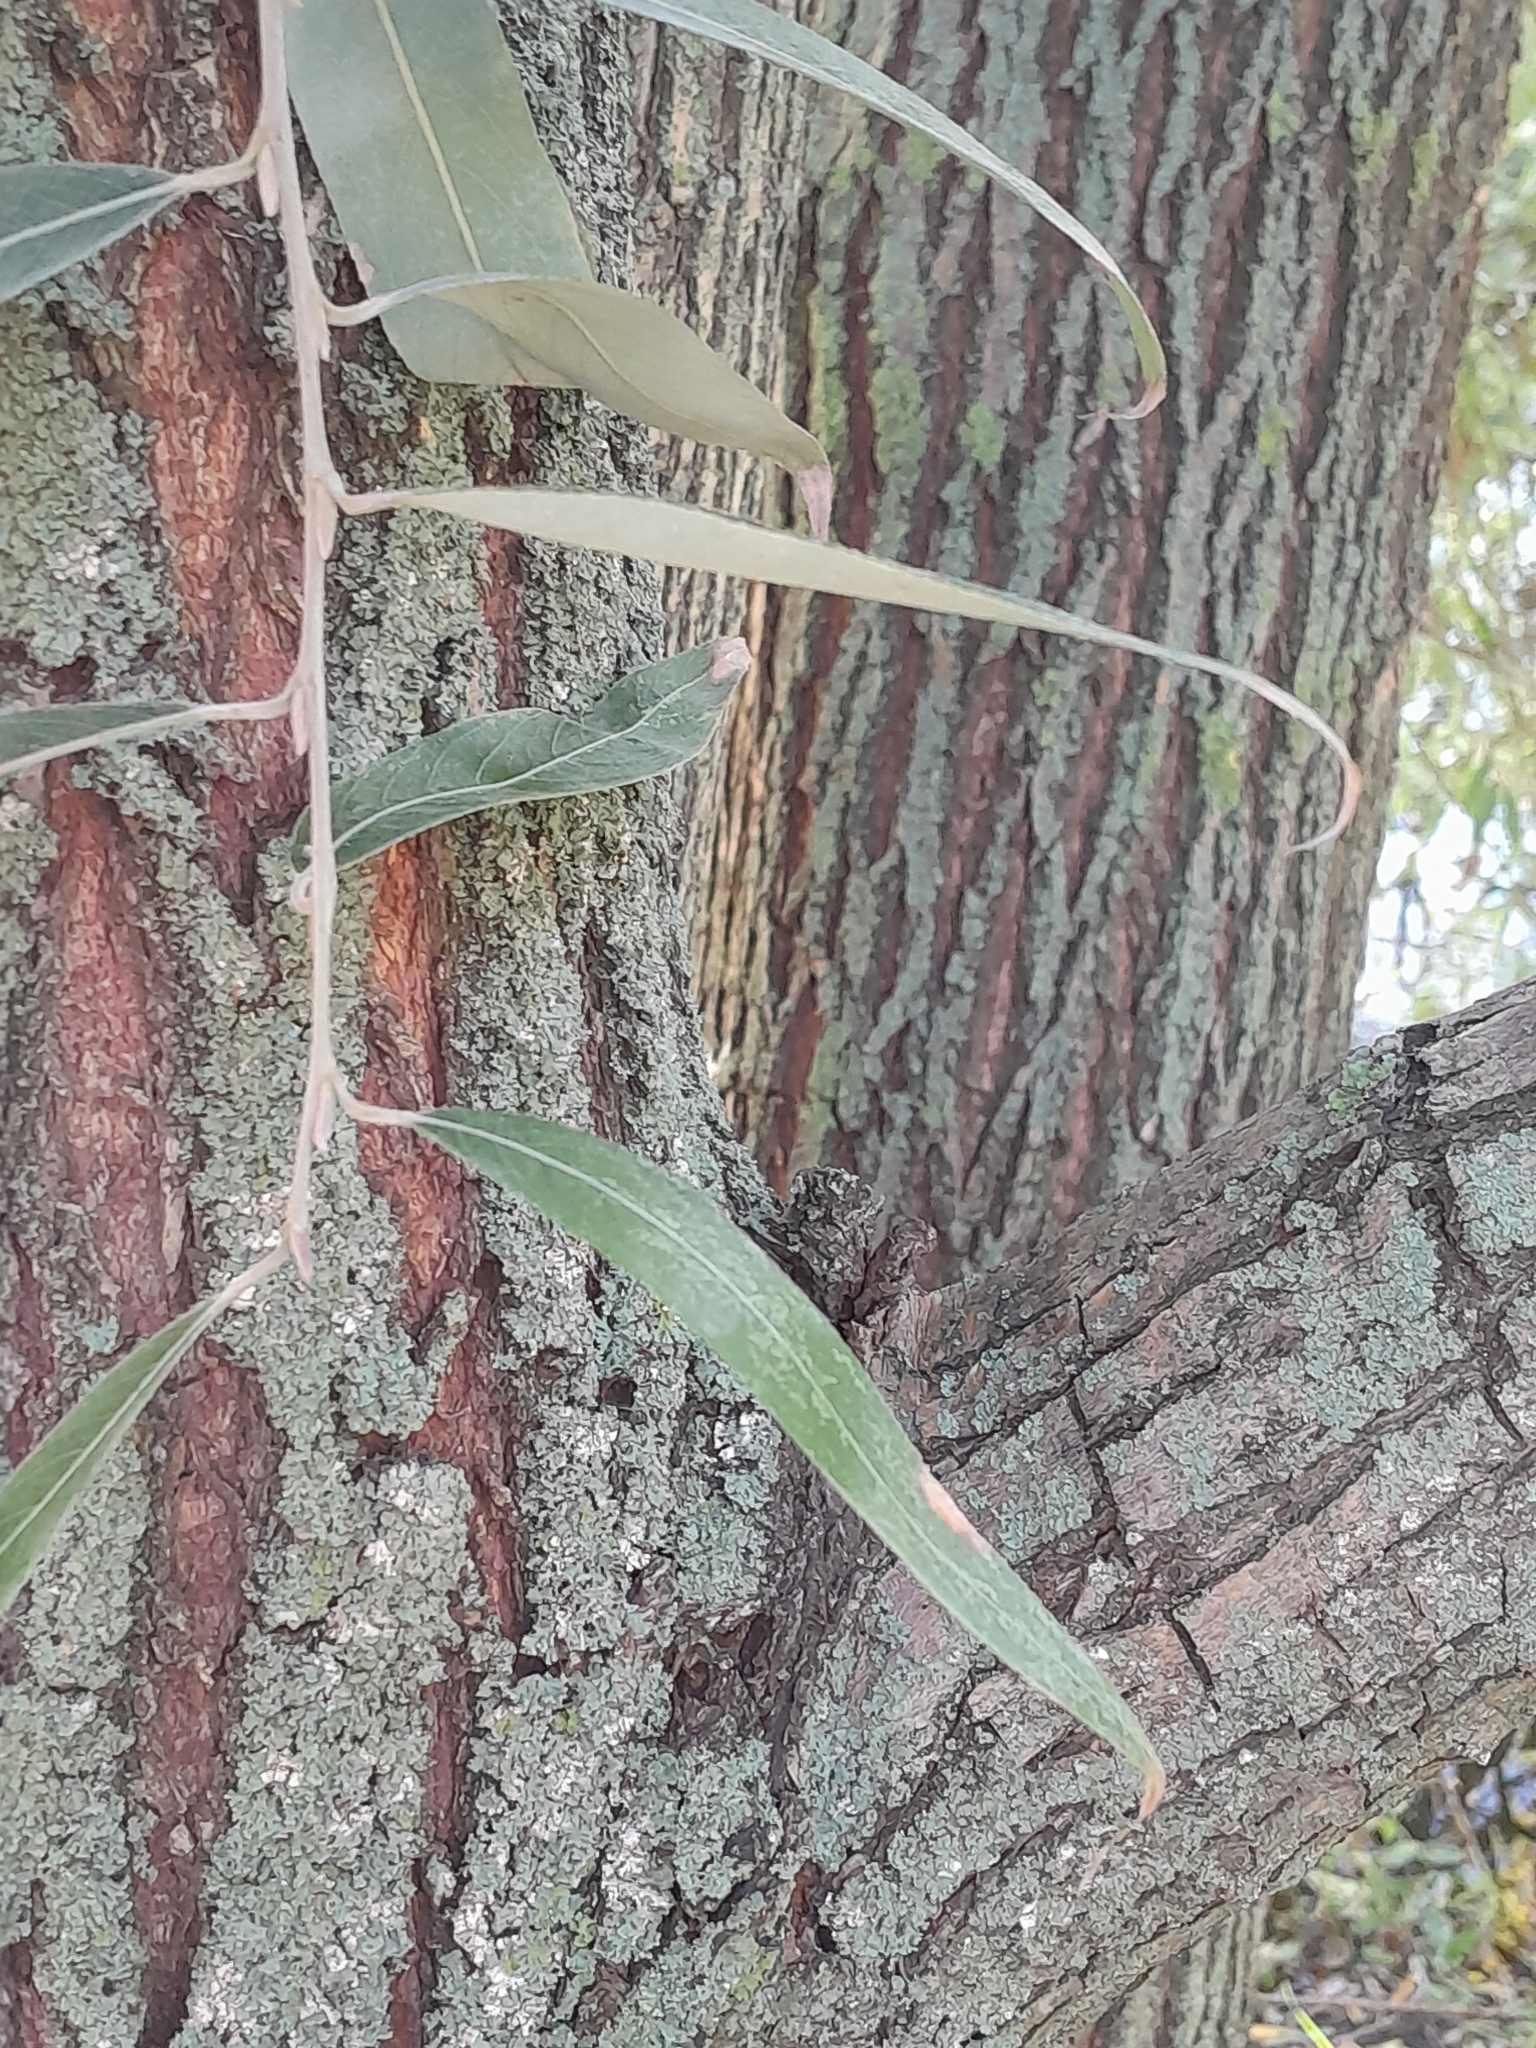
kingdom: Plantae
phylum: Tracheophyta
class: Magnoliopsida
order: Malpighiales
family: Salicaceae
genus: Salix
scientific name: Salix alba
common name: White willow
